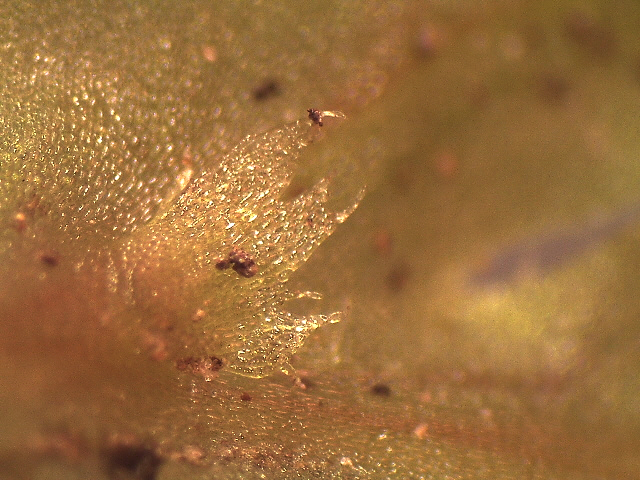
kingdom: Plantae
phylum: Marchantiophyta
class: Jungermanniopsida
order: Pallaviciniales
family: Pallaviciniaceae
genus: Symphyogyna
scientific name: Symphyogyna hymenophyllum
